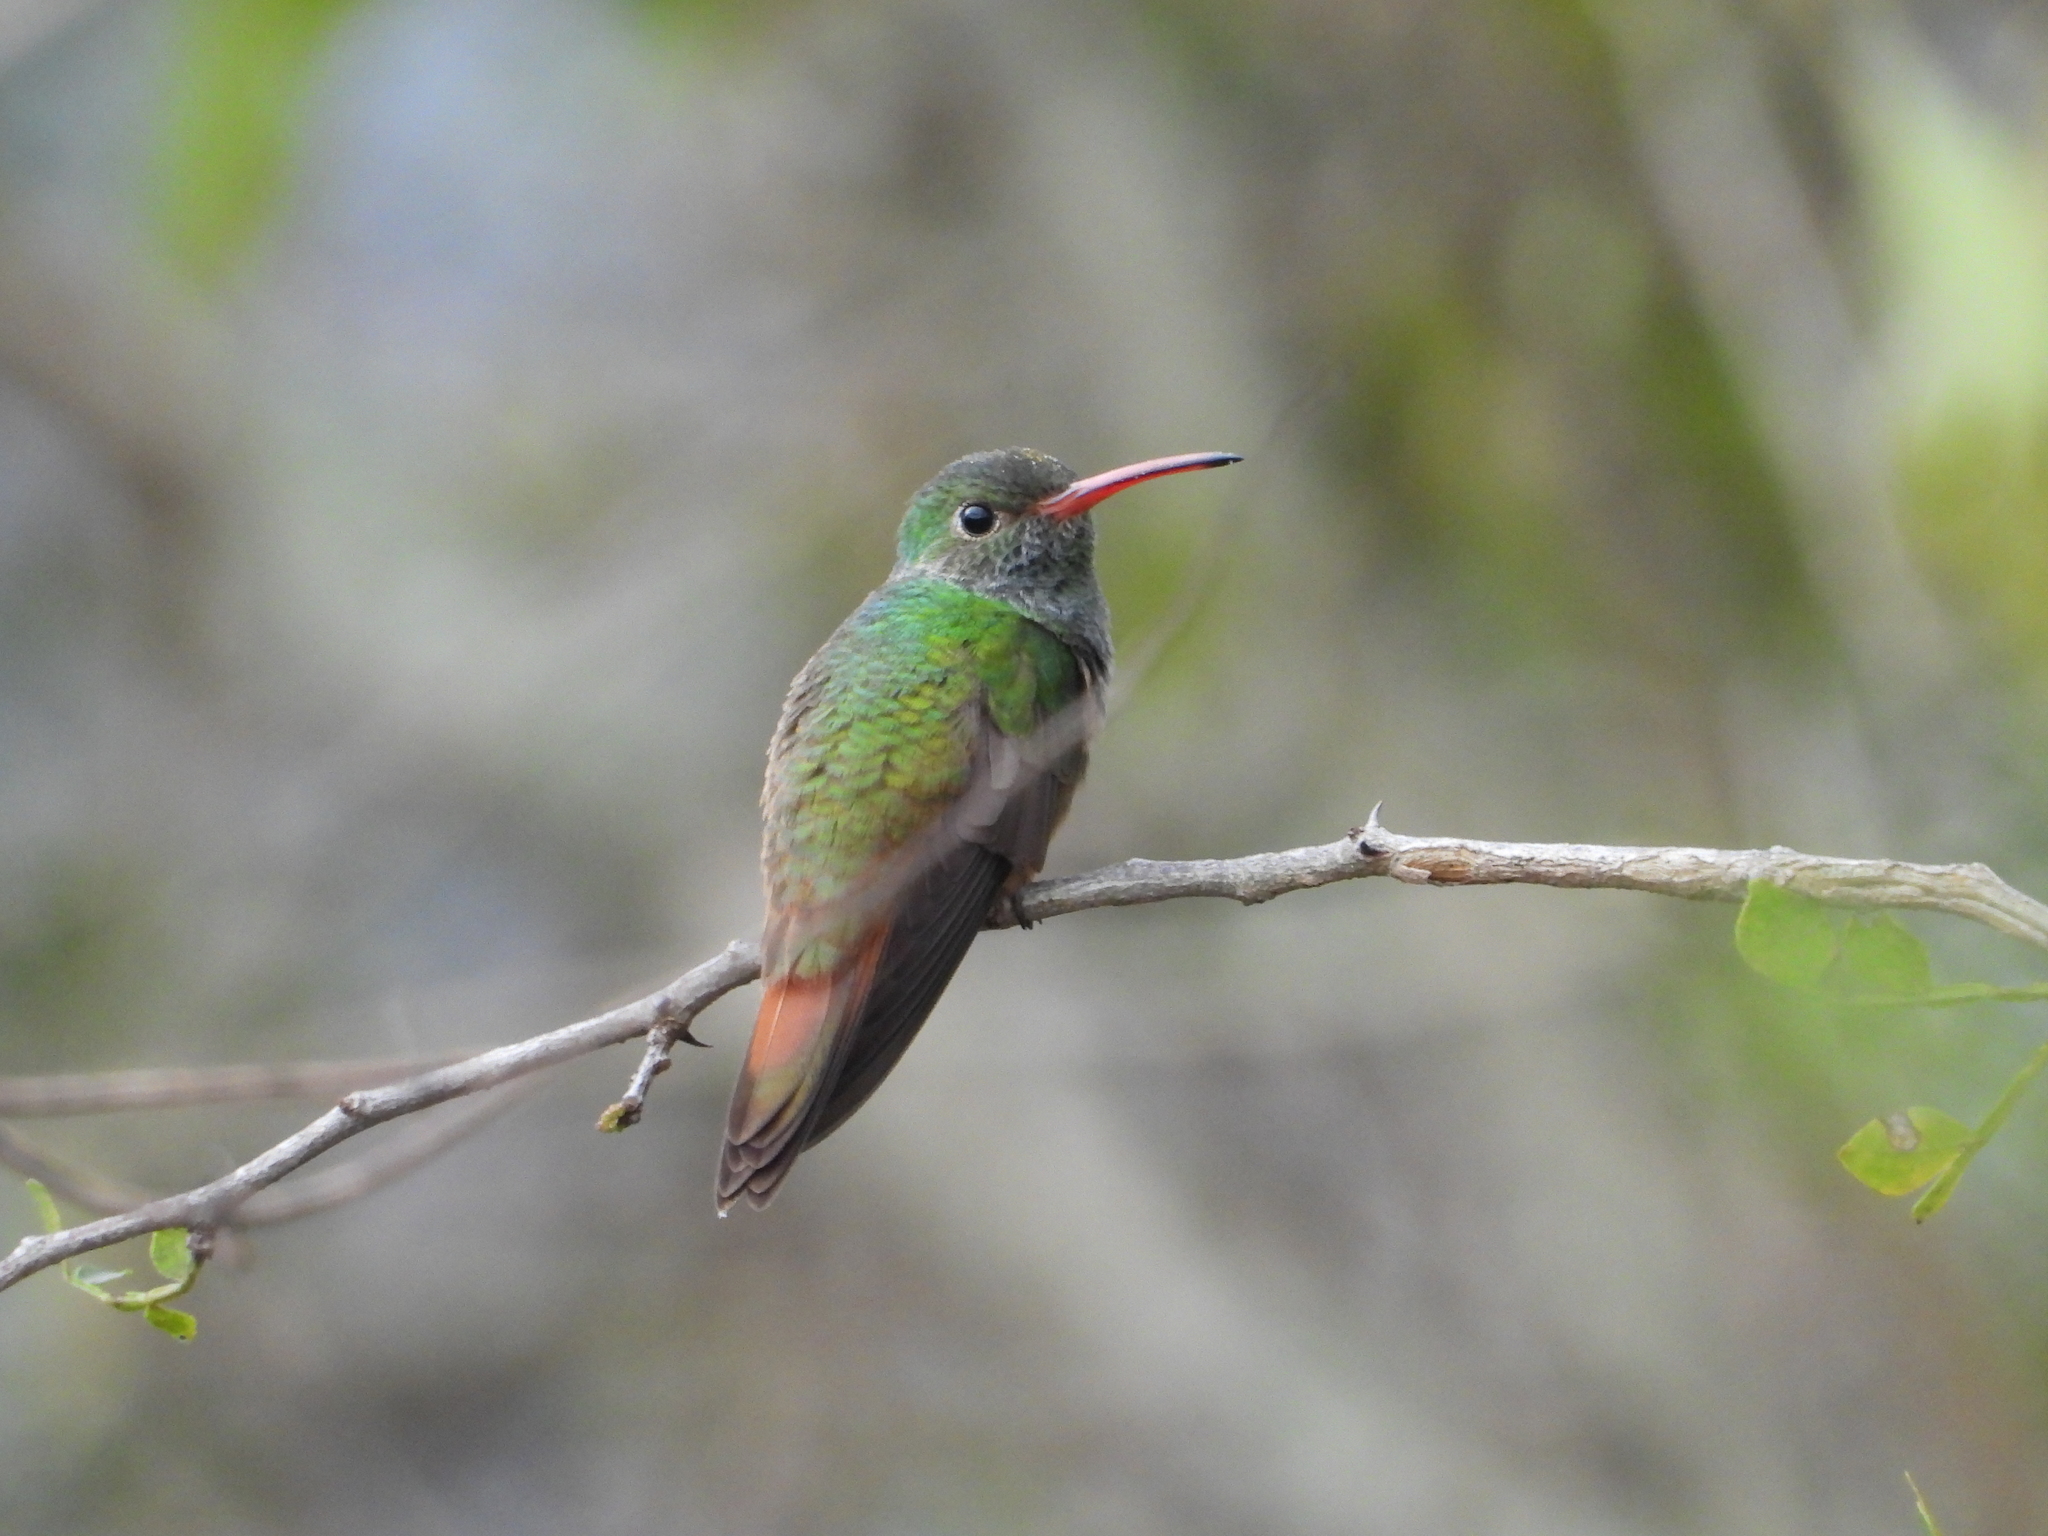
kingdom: Animalia
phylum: Chordata
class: Aves
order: Apodiformes
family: Trochilidae
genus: Amazilia
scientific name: Amazilia yucatanensis
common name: Buff-bellied hummingbird
